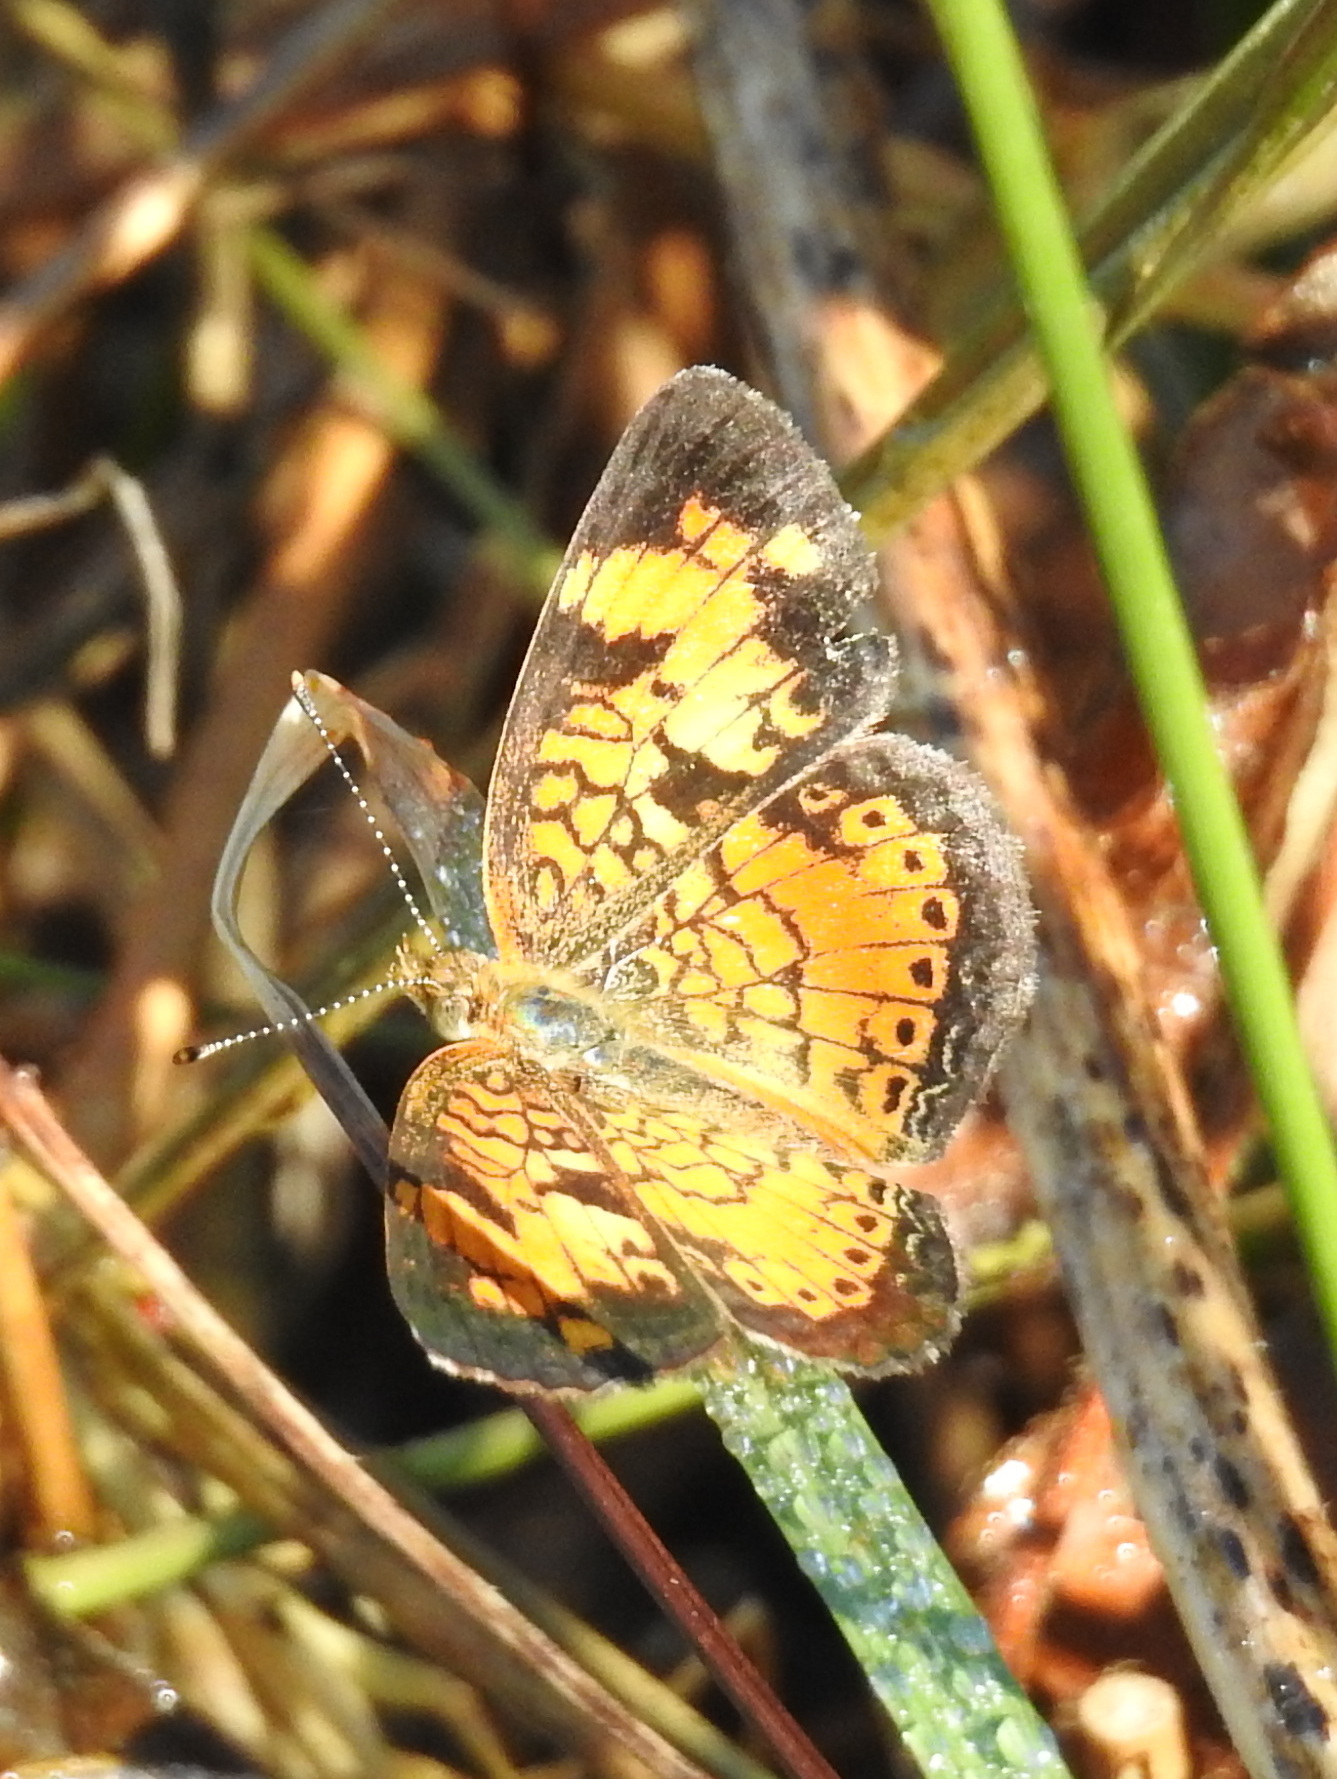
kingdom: Animalia
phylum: Arthropoda
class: Insecta
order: Lepidoptera
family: Nymphalidae
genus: Phyciodes
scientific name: Phyciodes tharos
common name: Pearl crescent
